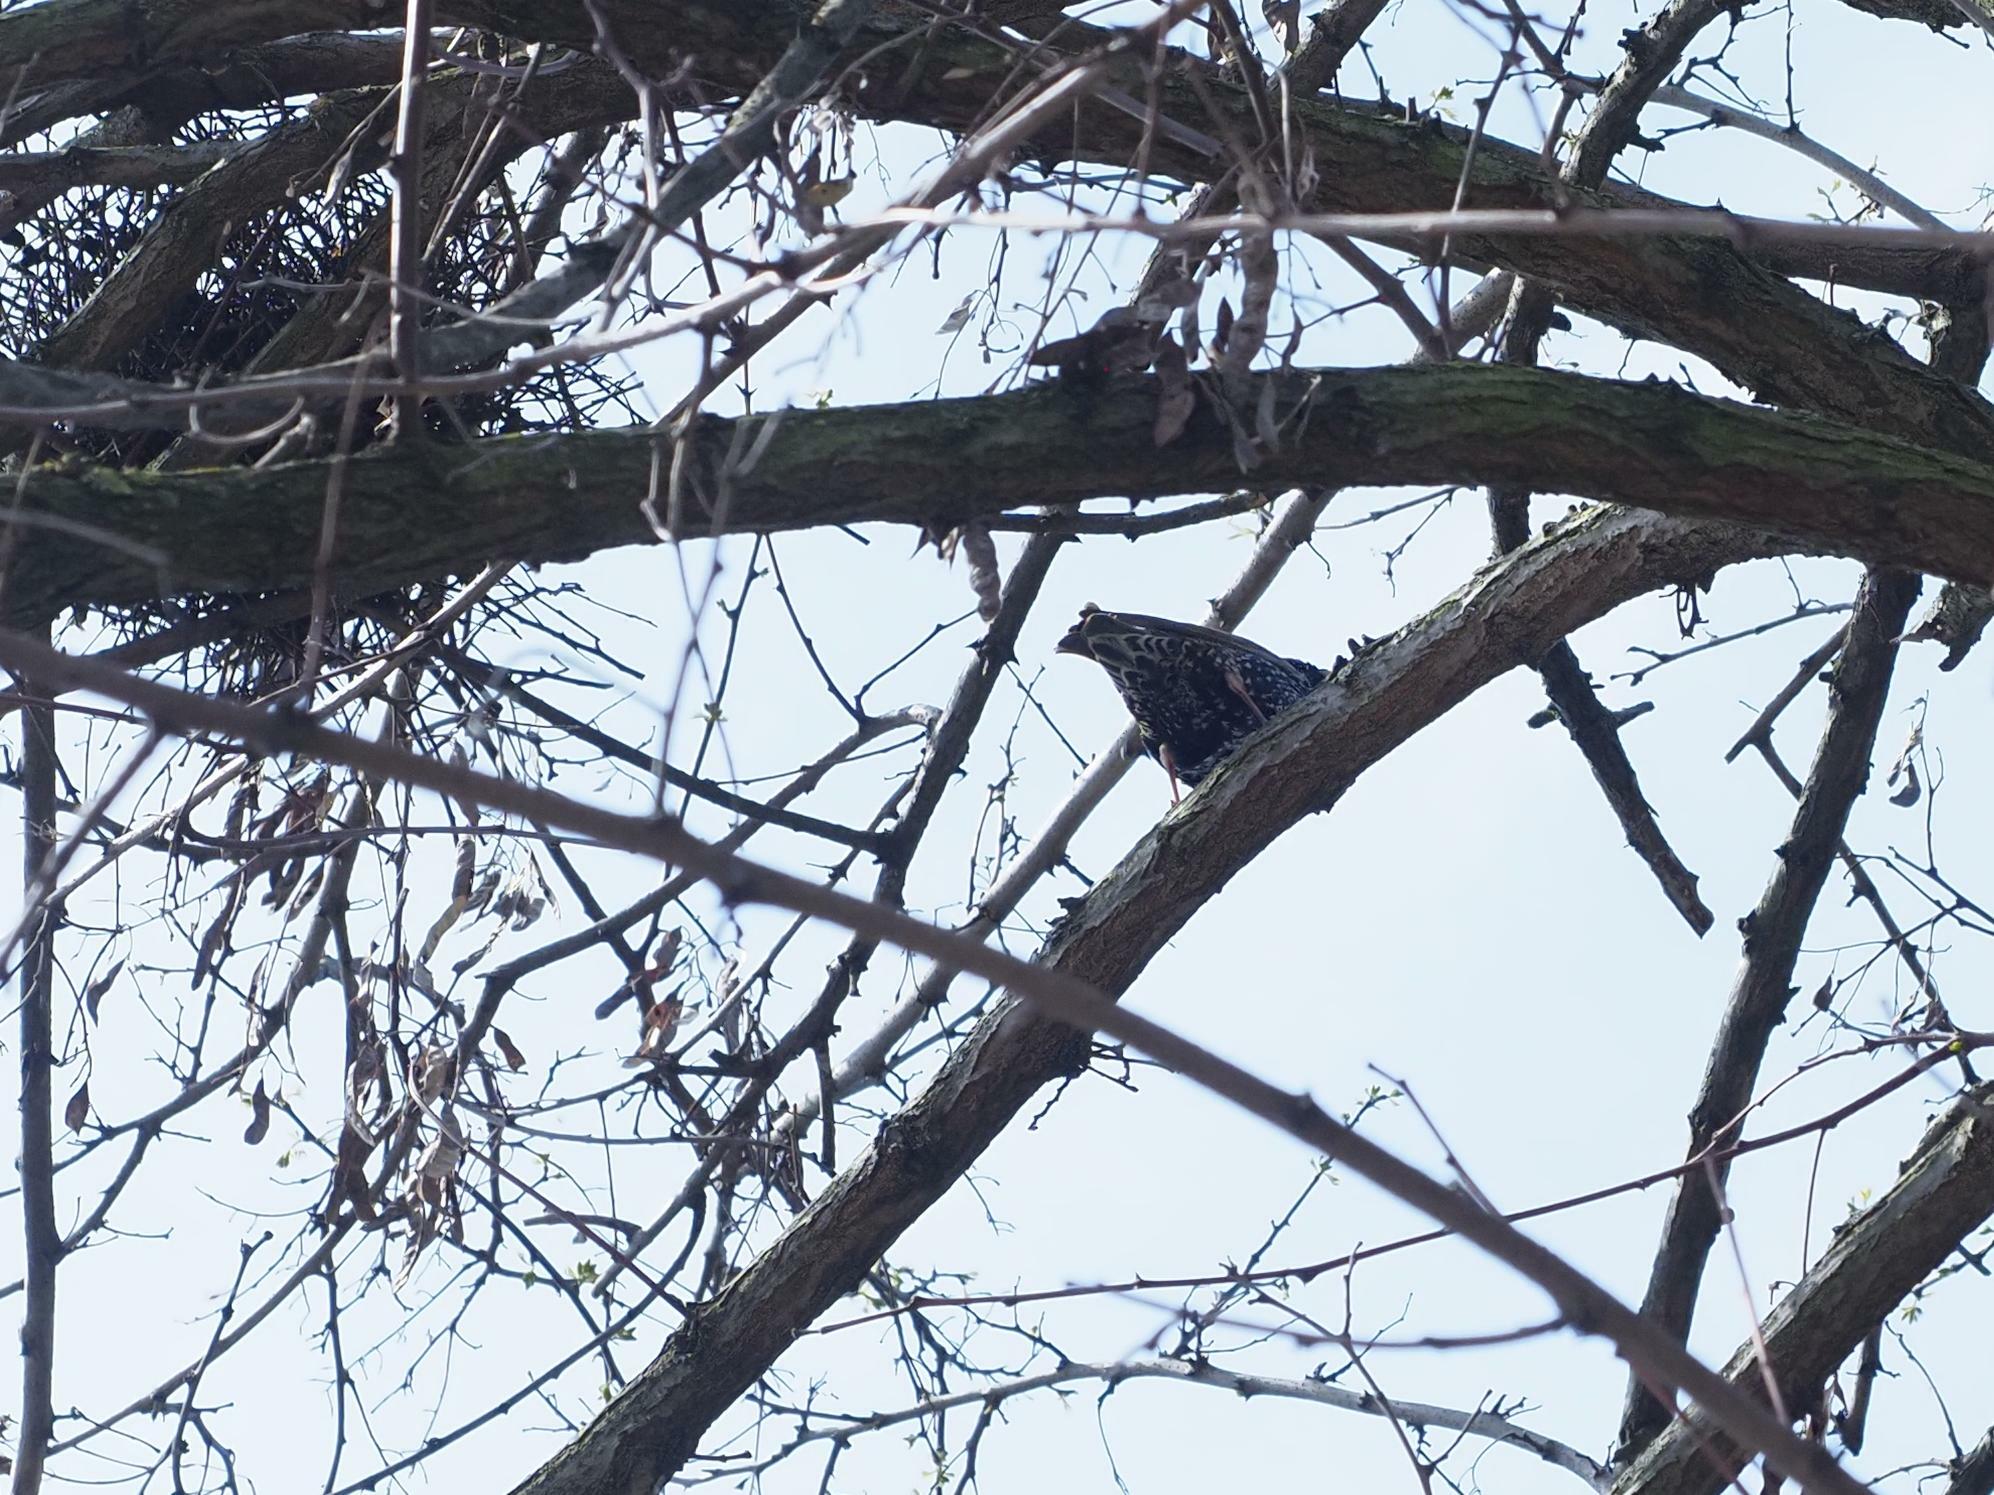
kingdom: Animalia
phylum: Chordata
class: Aves
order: Passeriformes
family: Sturnidae
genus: Sturnus
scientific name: Sturnus vulgaris
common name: Common starling
